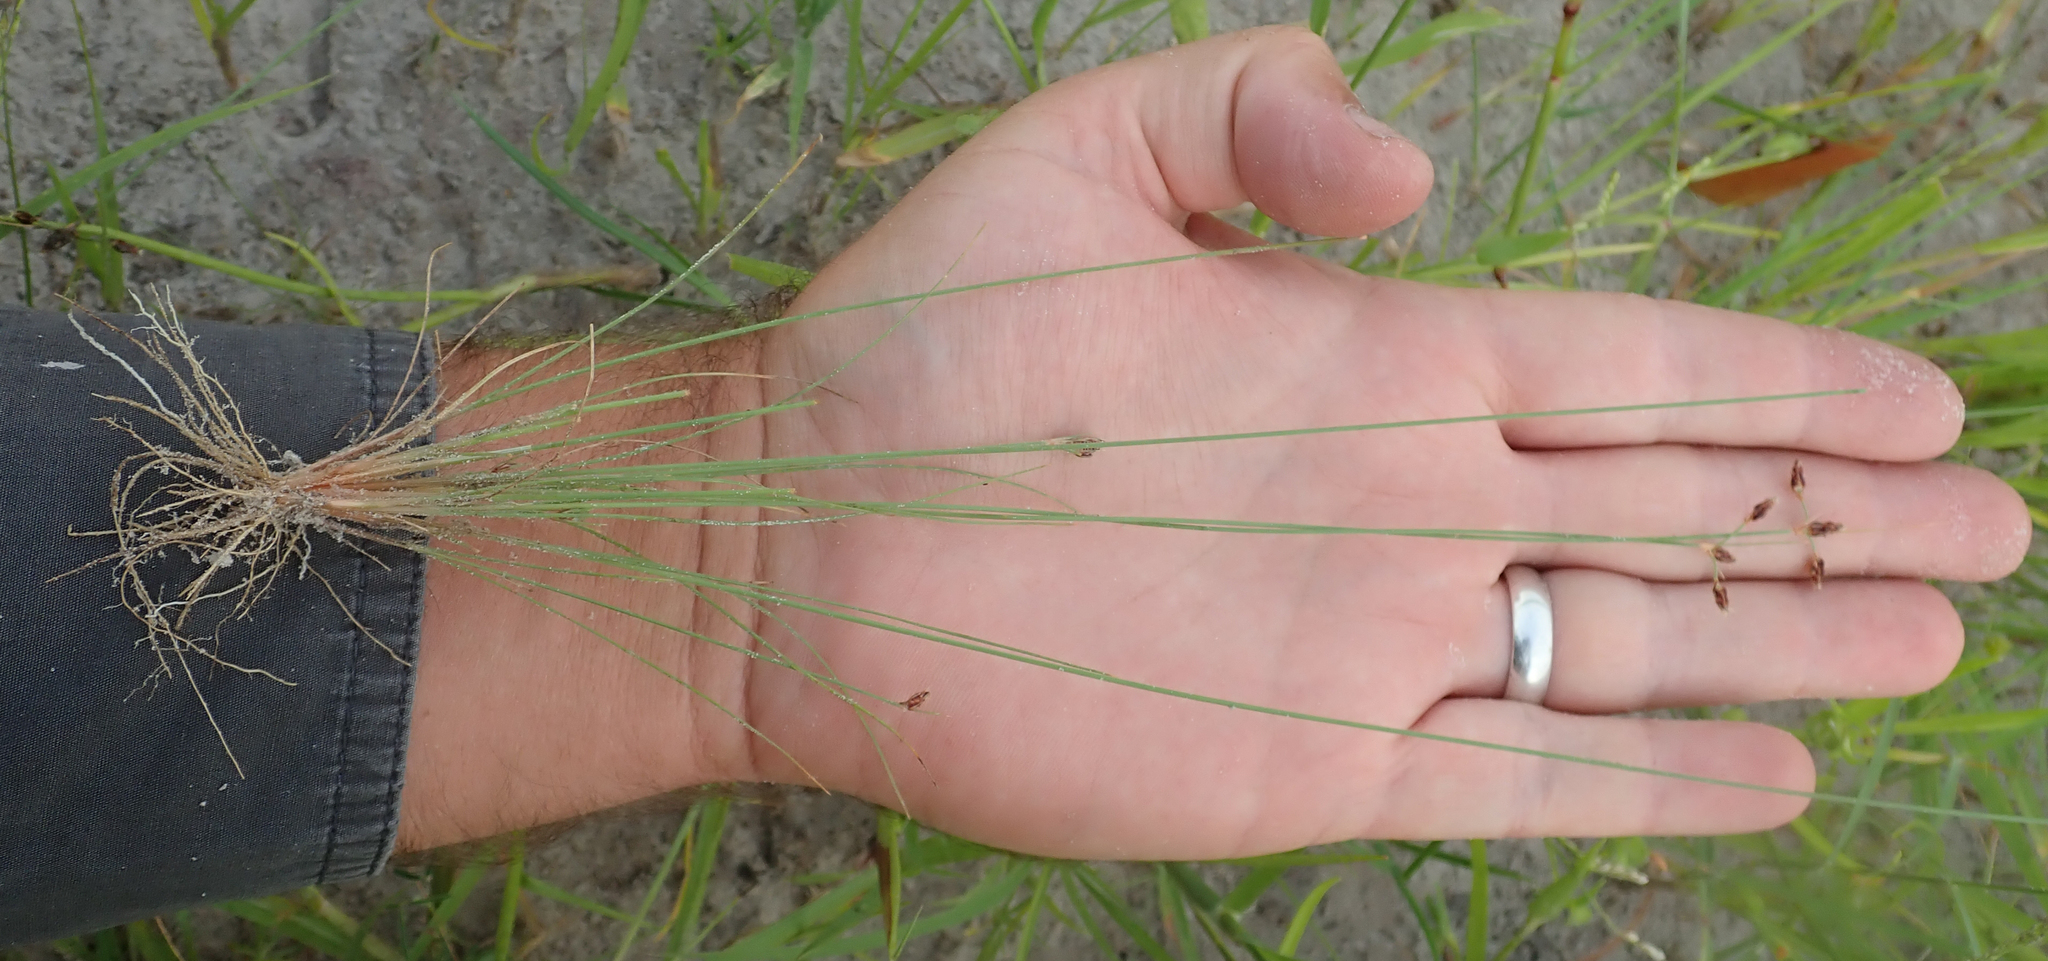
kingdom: Plantae
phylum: Tracheophyta
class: Liliopsida
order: Poales
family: Cyperaceae
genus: Bulbostylis
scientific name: Bulbostylis hispidula
